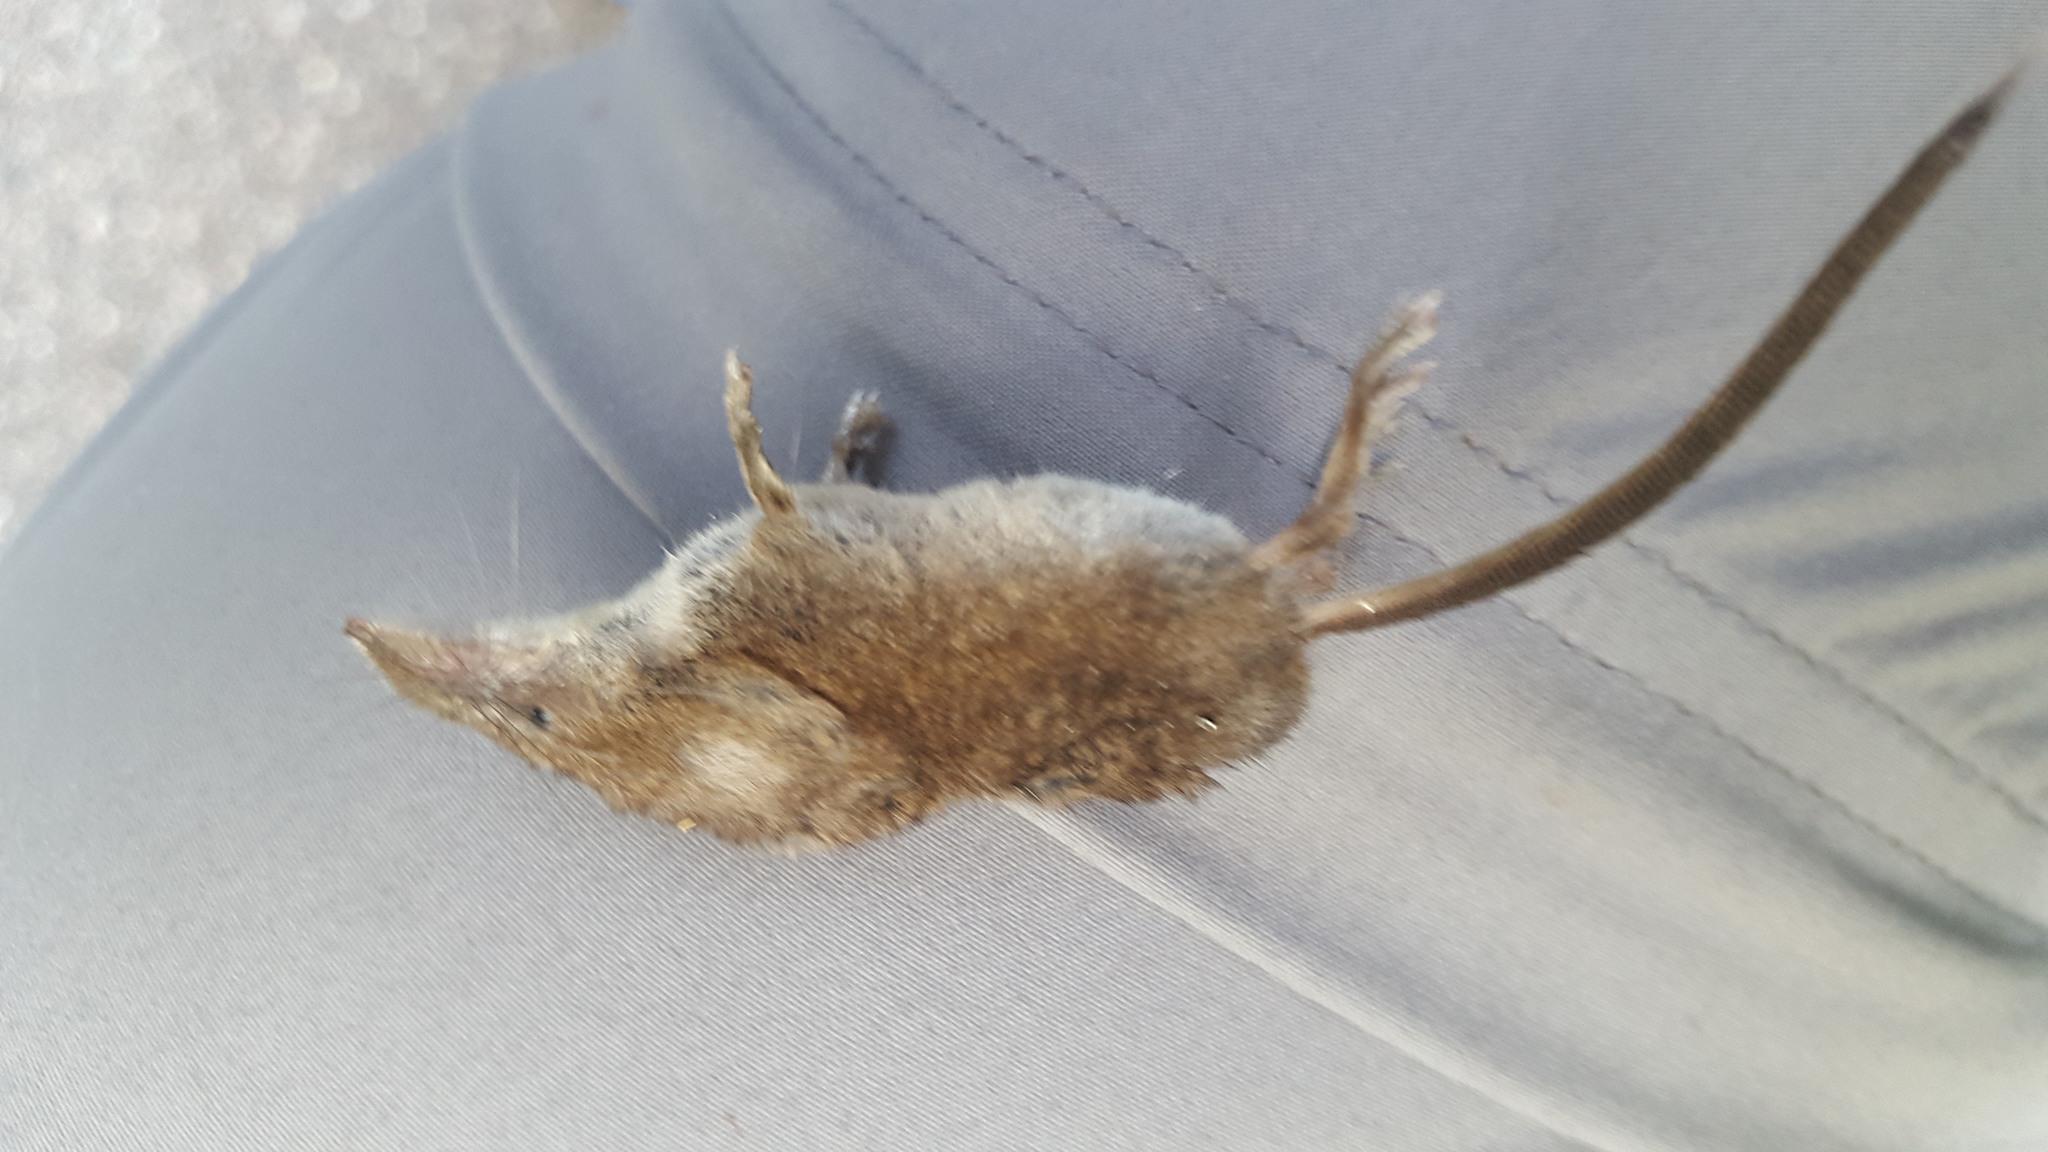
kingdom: Animalia
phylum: Chordata
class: Mammalia
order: Soricomorpha
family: Soricidae
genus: Sorex
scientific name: Sorex cinereus
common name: Cinereus shrew
